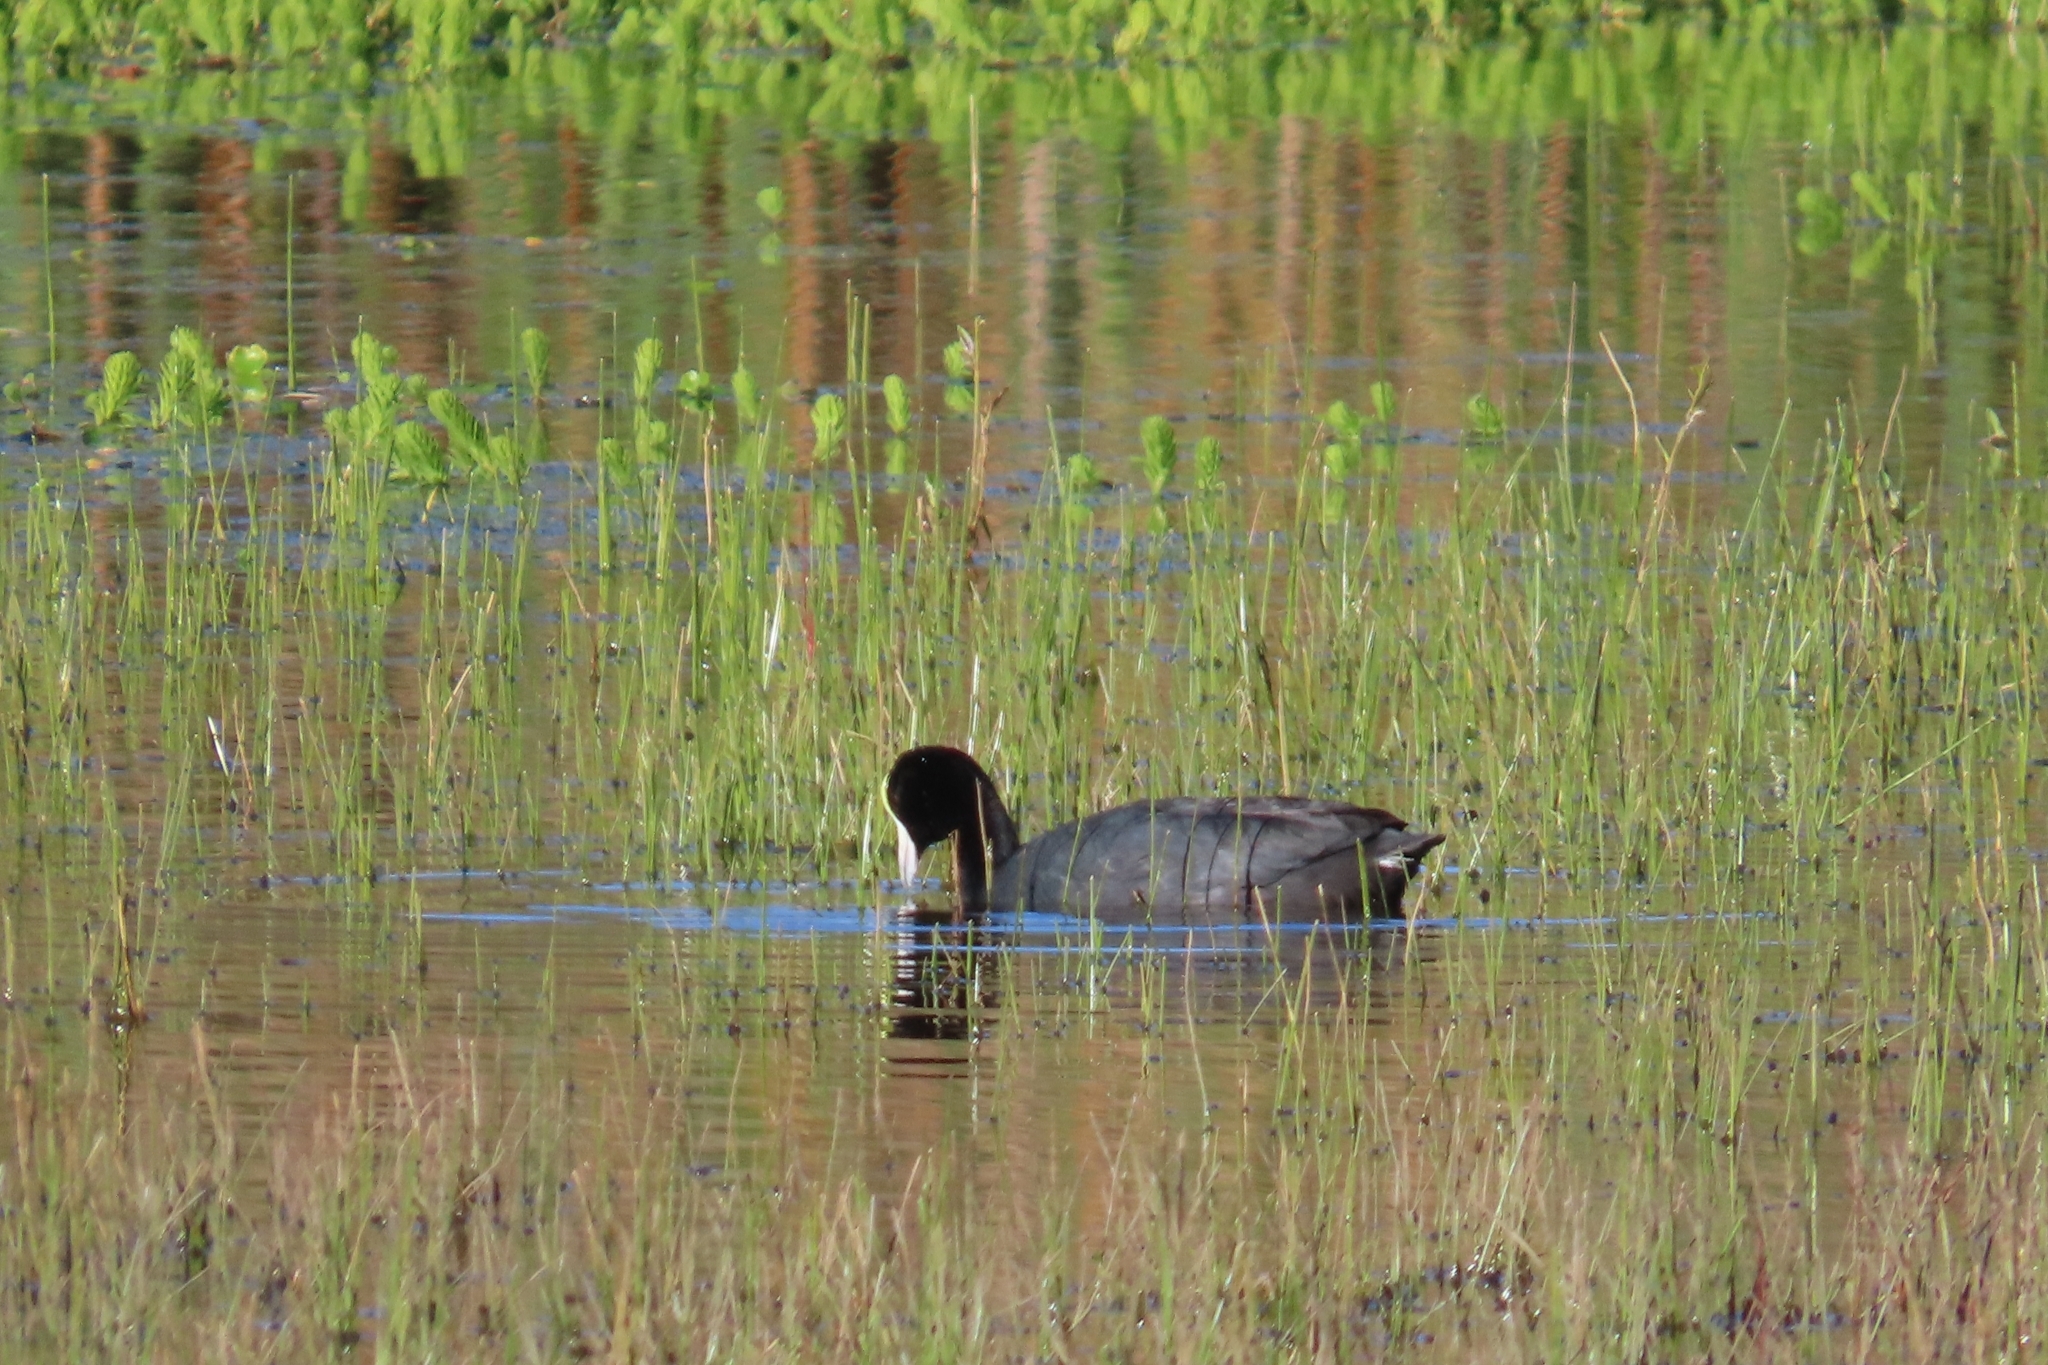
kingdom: Animalia
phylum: Chordata
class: Aves
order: Gruiformes
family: Rallidae
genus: Fulica
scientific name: Fulica ardesiaca
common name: Andean coot
